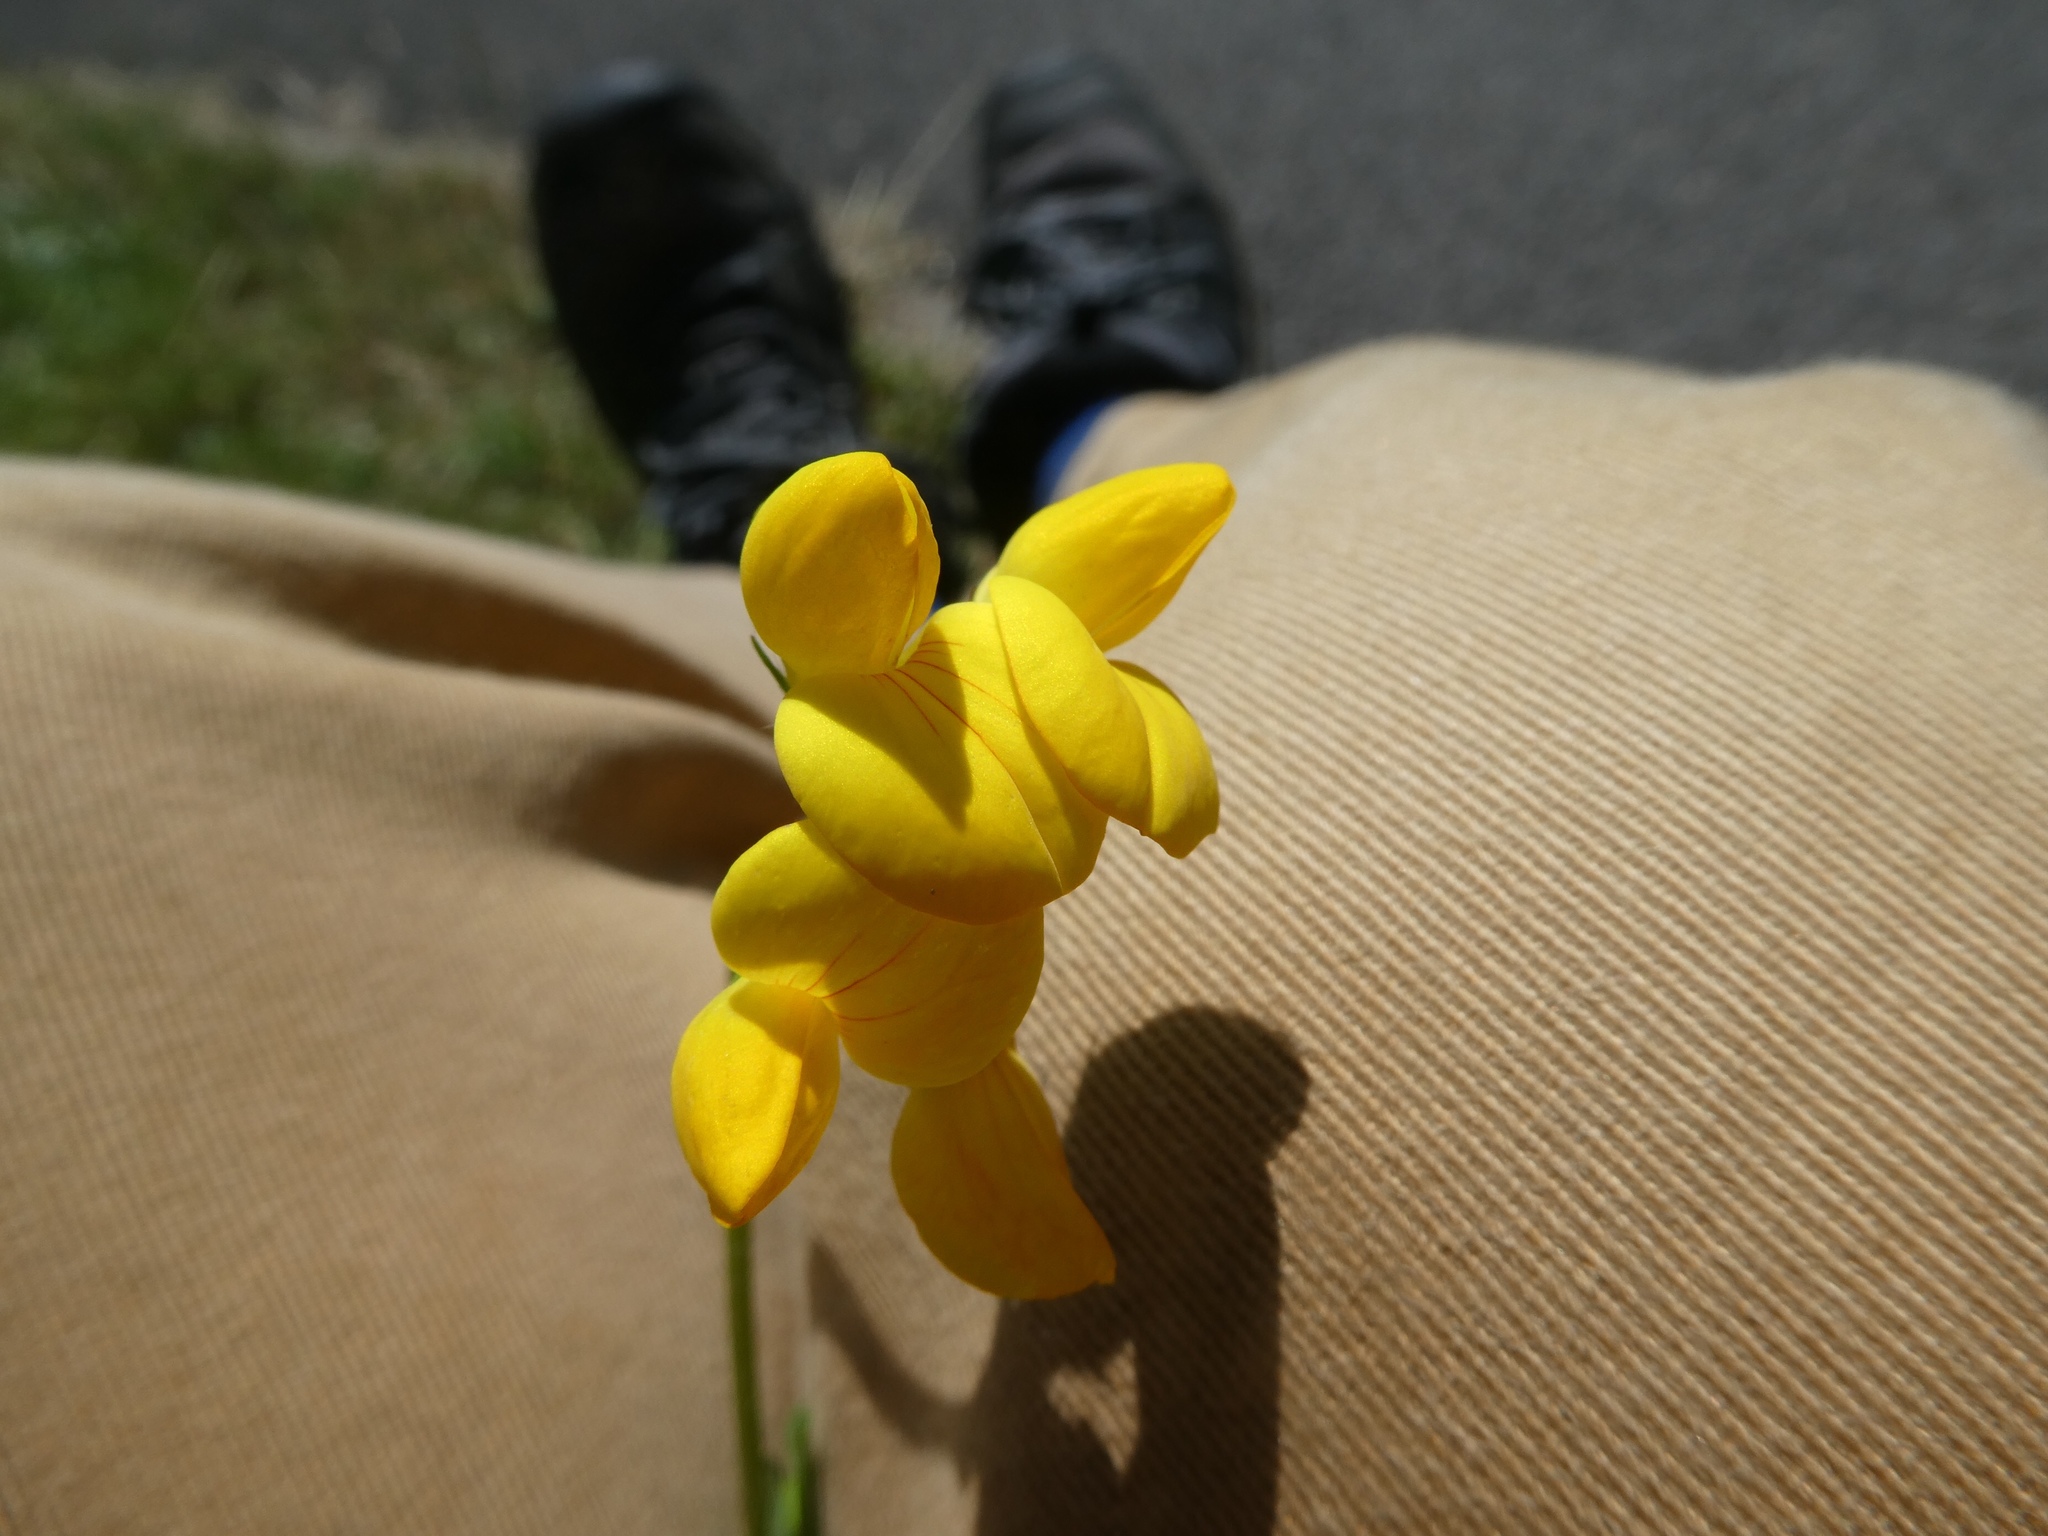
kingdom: Plantae
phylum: Tracheophyta
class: Magnoliopsida
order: Fabales
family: Fabaceae
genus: Lotus
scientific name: Lotus corniculatus
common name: Common bird's-foot-trefoil
